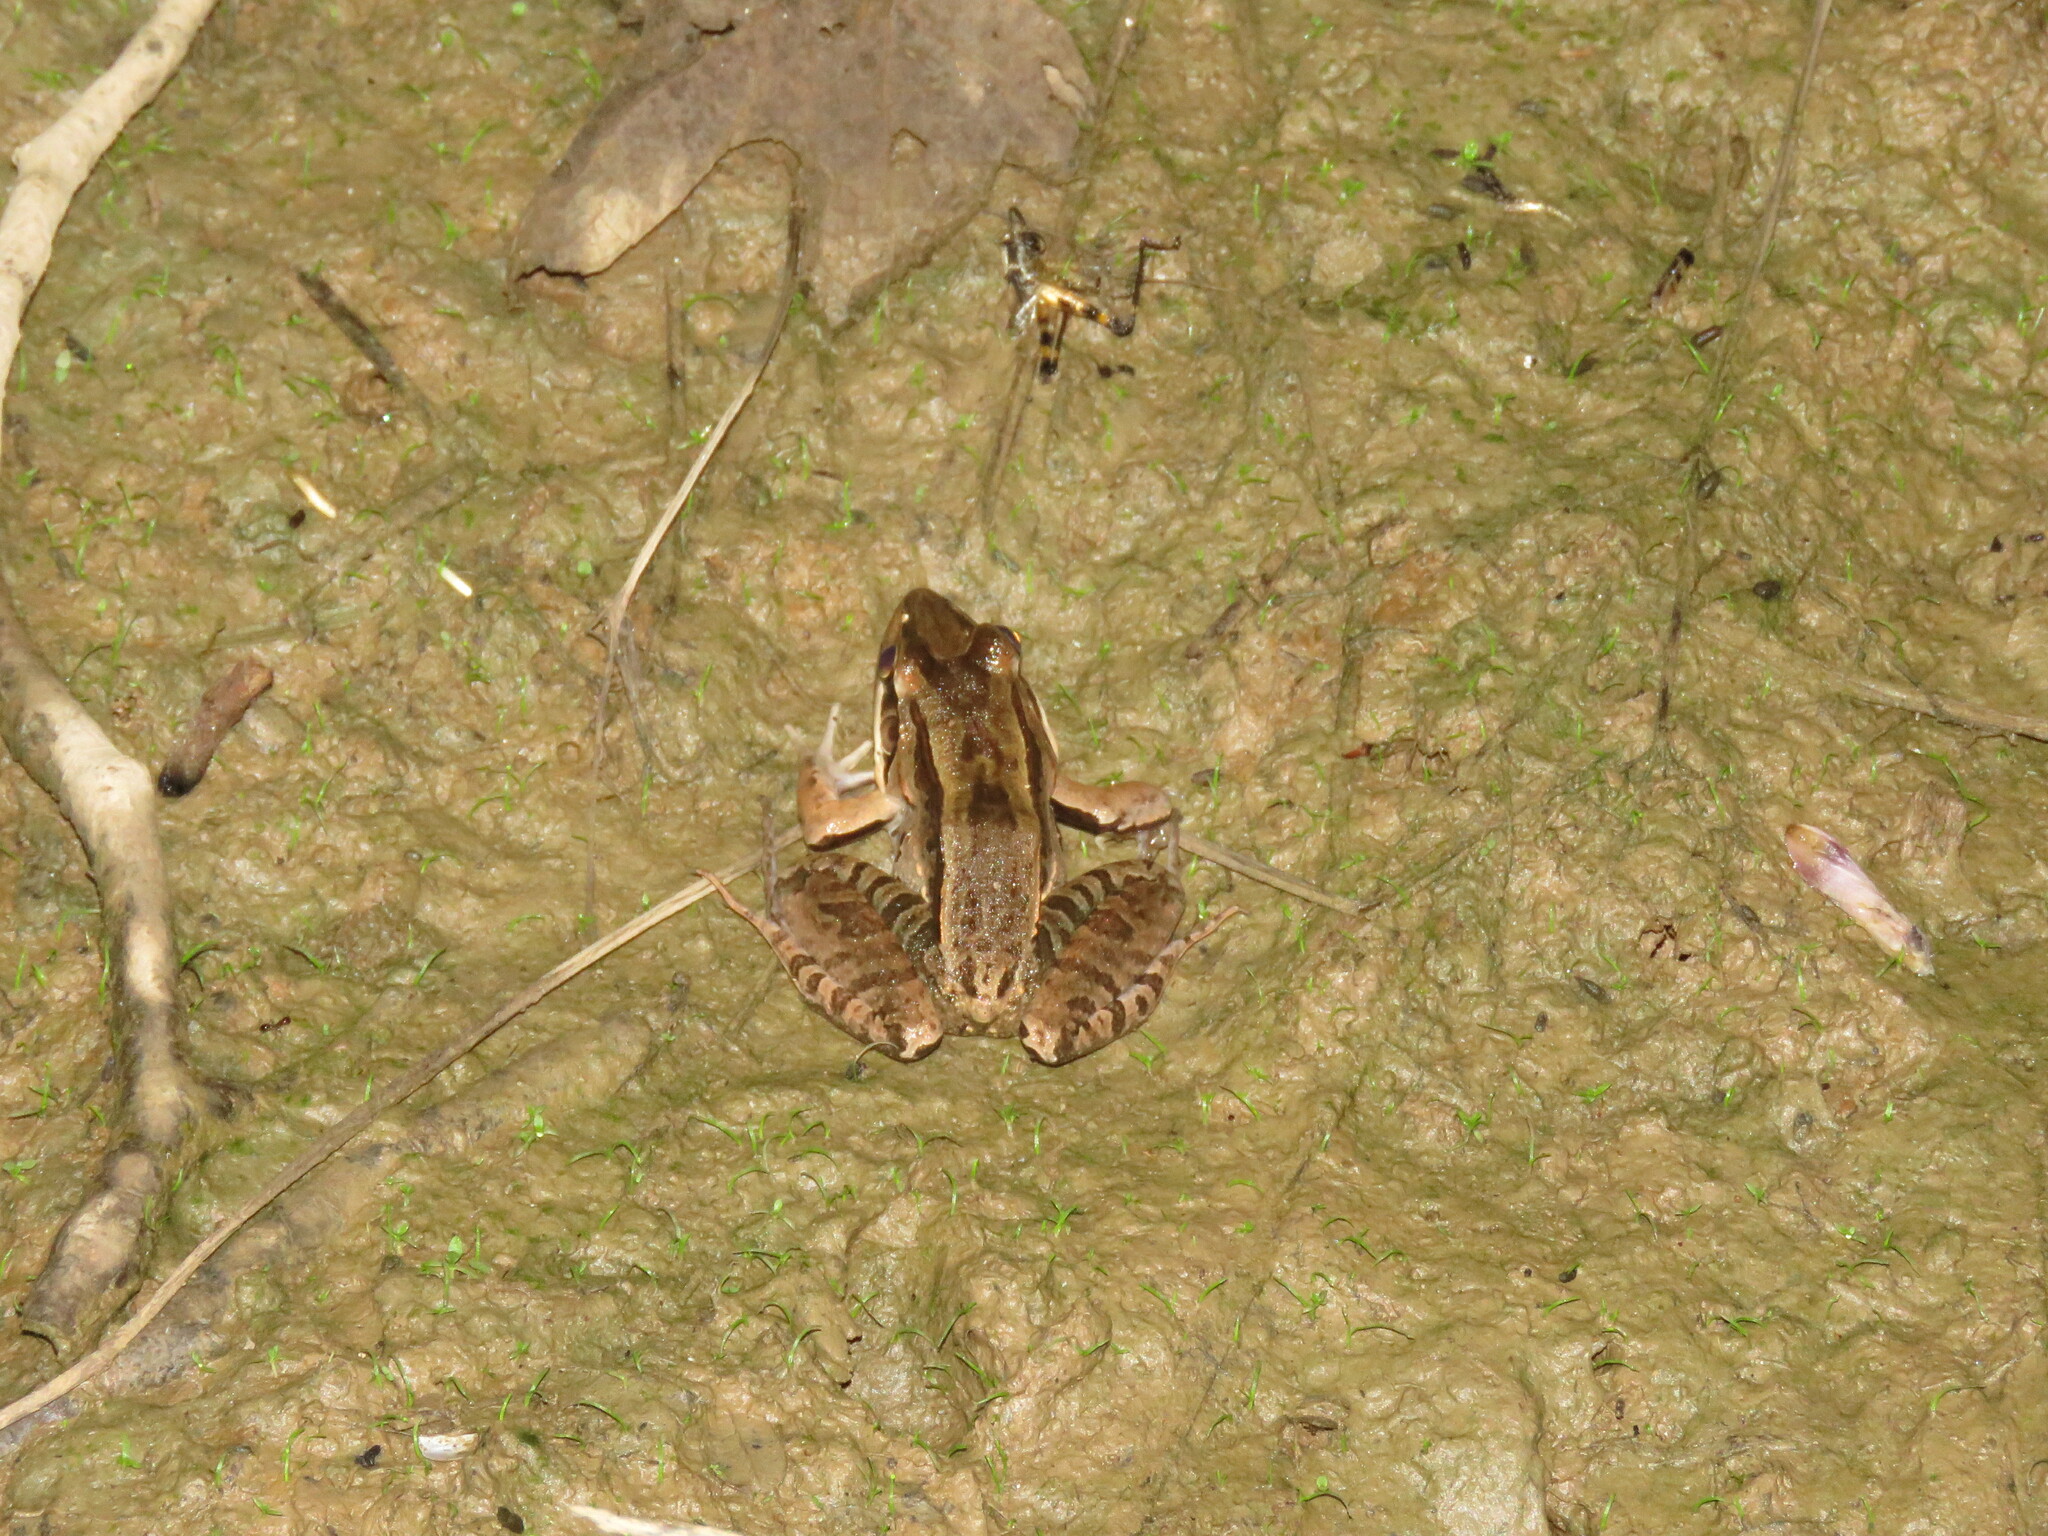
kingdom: Animalia
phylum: Chordata
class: Amphibia
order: Anura
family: Leptodactylidae
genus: Leptodactylus
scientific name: Leptodactylus bolivianus
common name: Bolivian white-lipped frog
